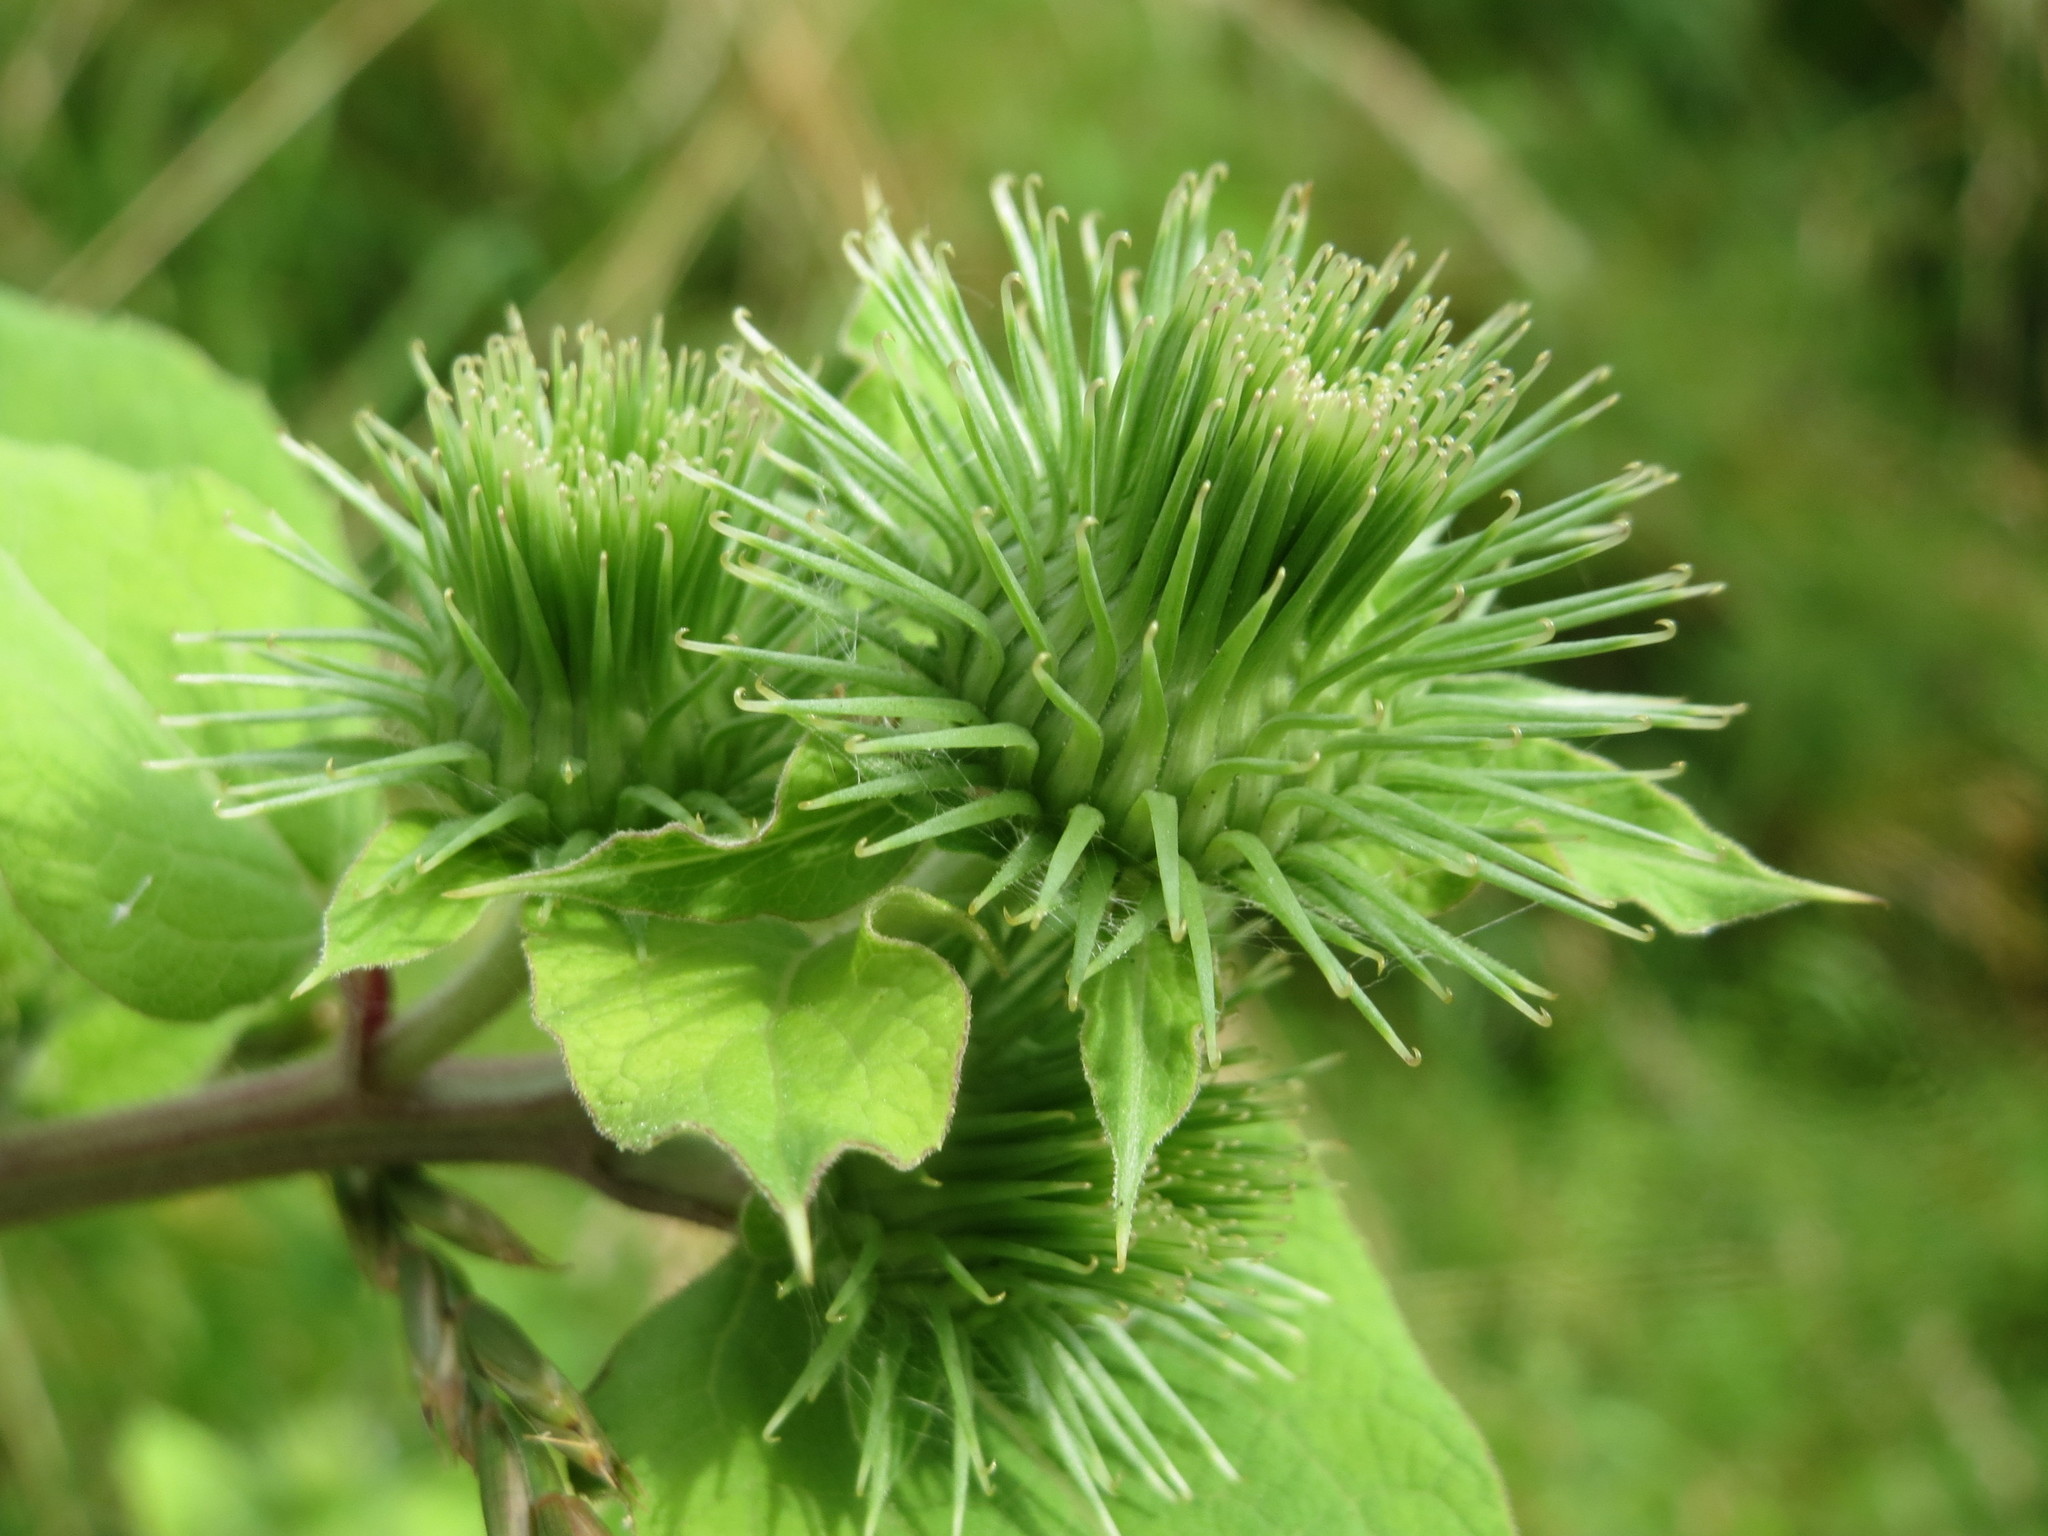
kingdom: Plantae
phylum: Tracheophyta
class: Magnoliopsida
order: Asterales
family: Asteraceae
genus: Arctium
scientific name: Arctium lappa
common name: Greater burdock
